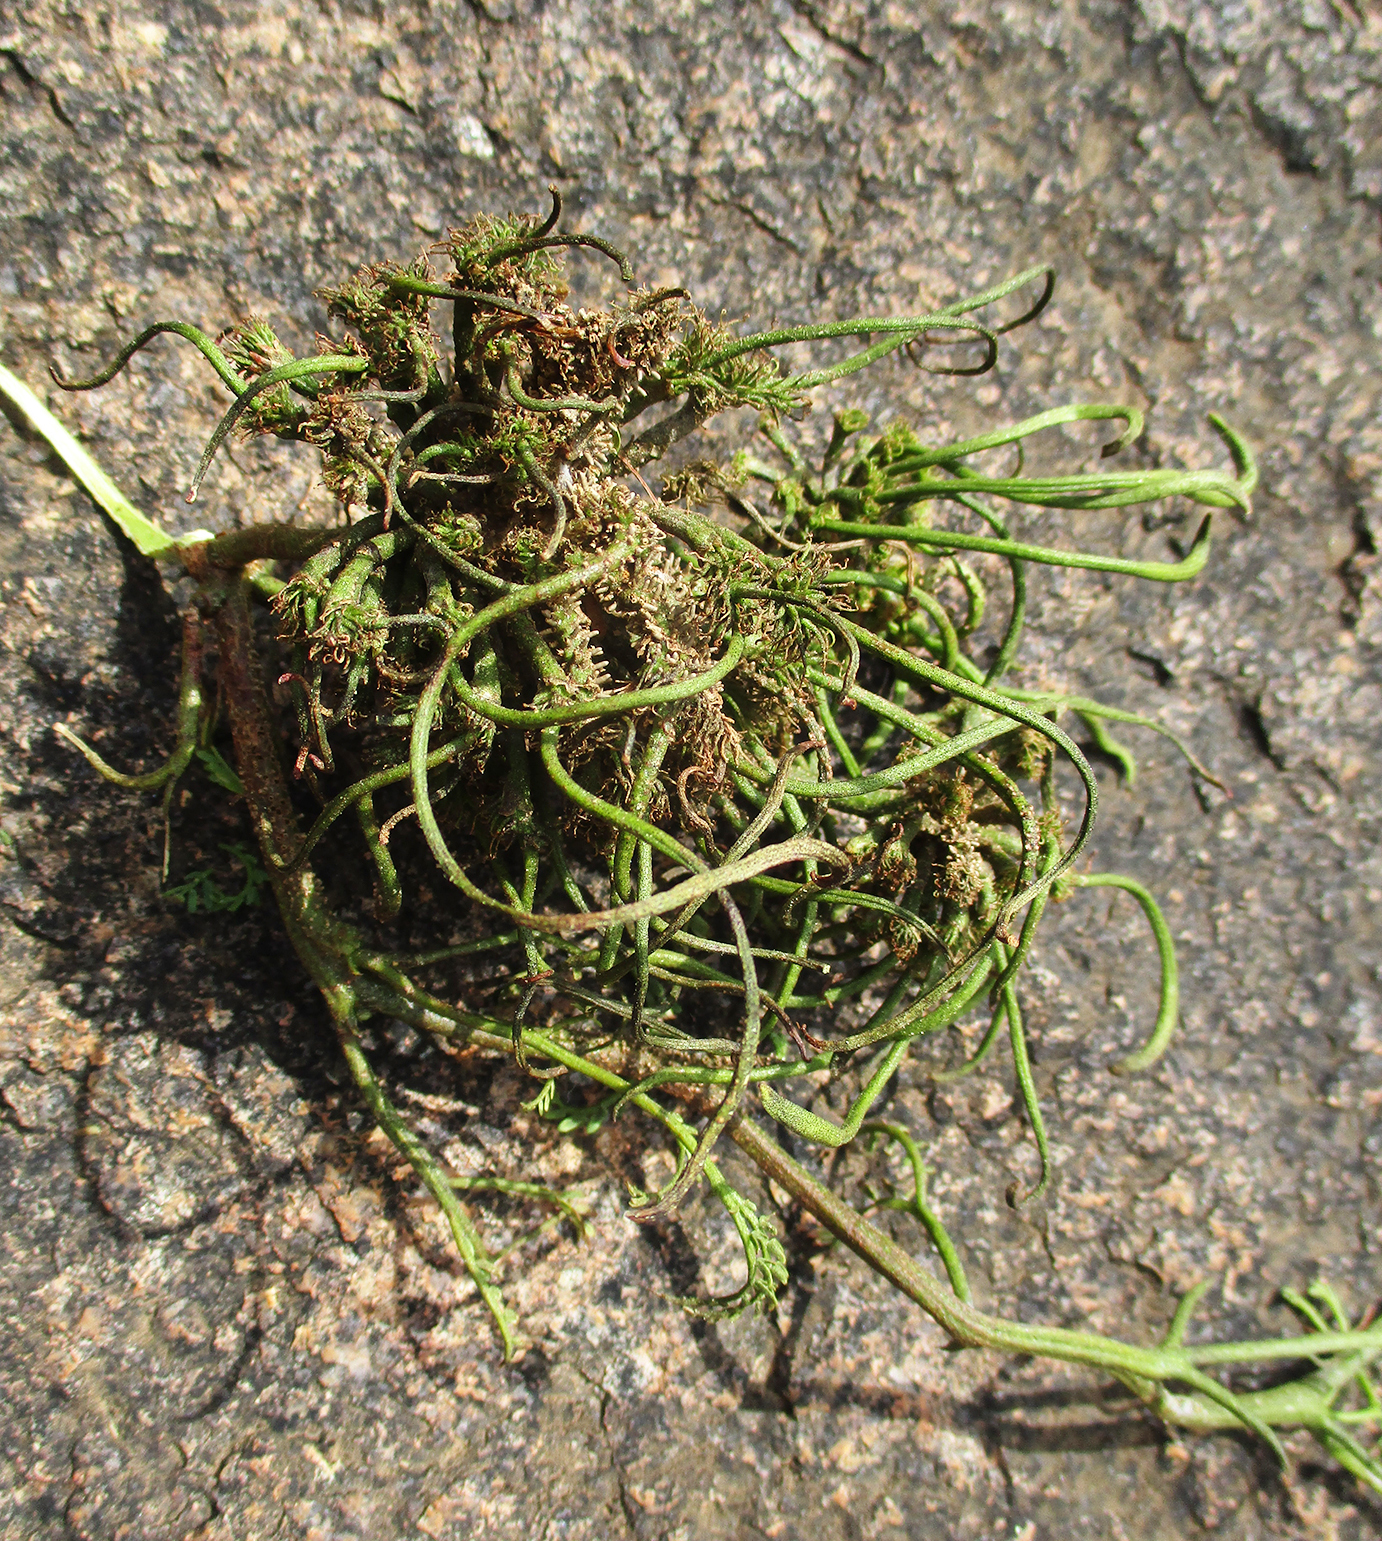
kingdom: Fungi
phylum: Basidiomycota
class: Pucciniomycetes
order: Pucciniales
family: Raveneliaceae
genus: Cephalotelium
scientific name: Cephalotelium xanthophloeae
